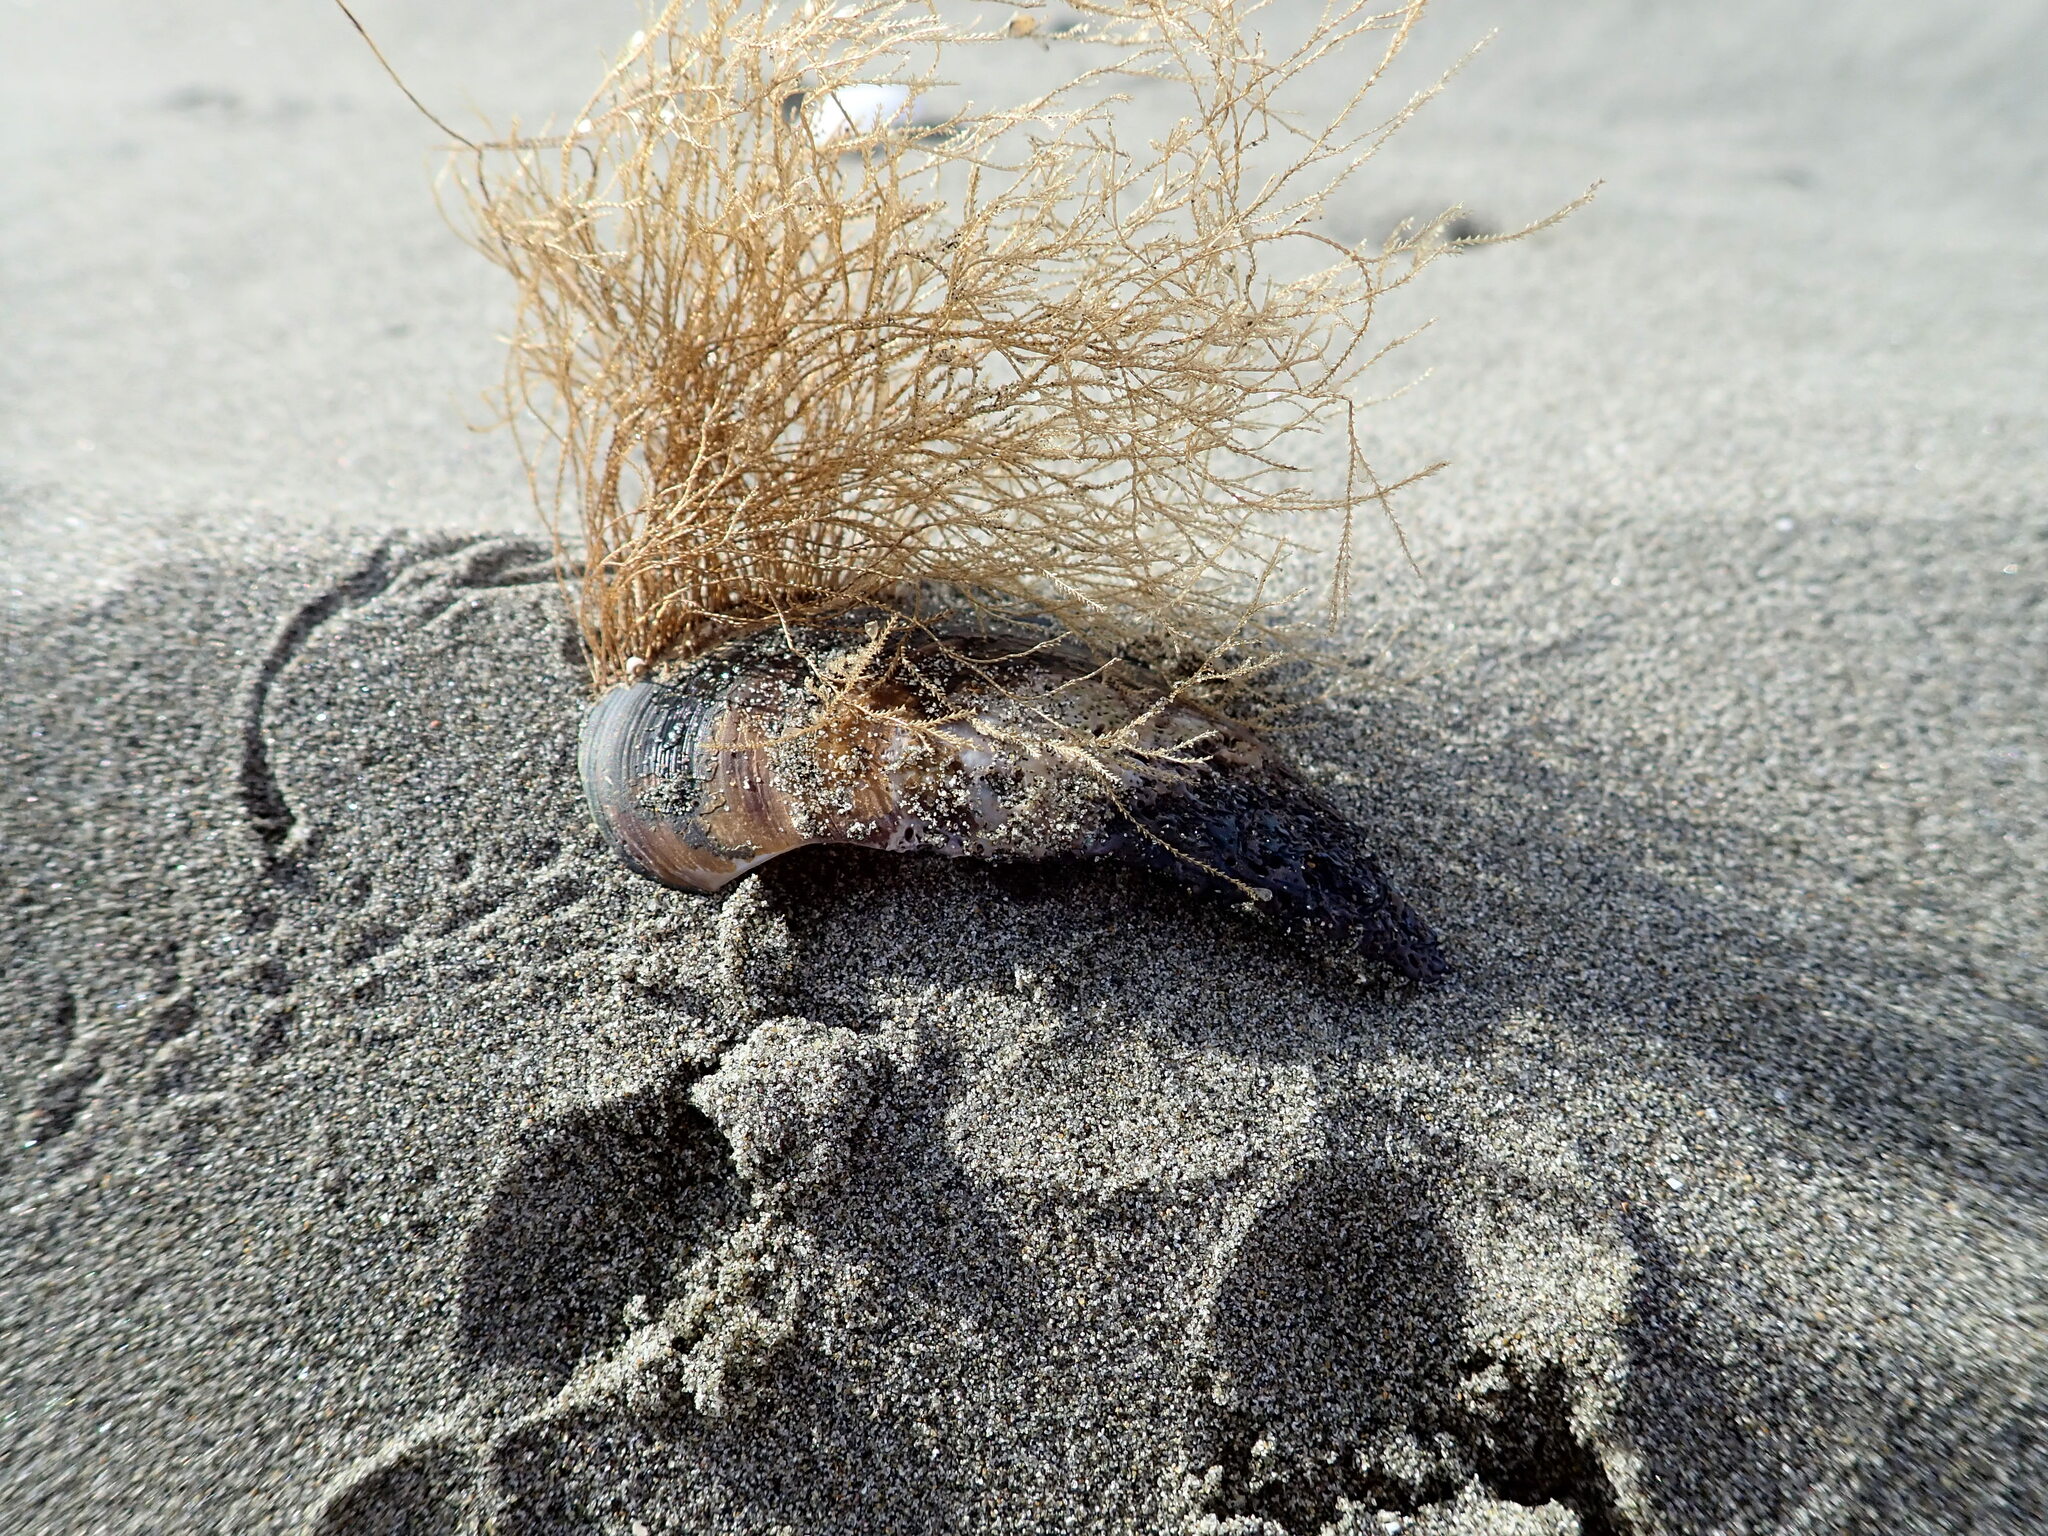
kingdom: Animalia
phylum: Cnidaria
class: Hydrozoa
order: Leptothecata
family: Sertulariidae
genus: Amphisbetia
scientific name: Amphisbetia bispinosa
